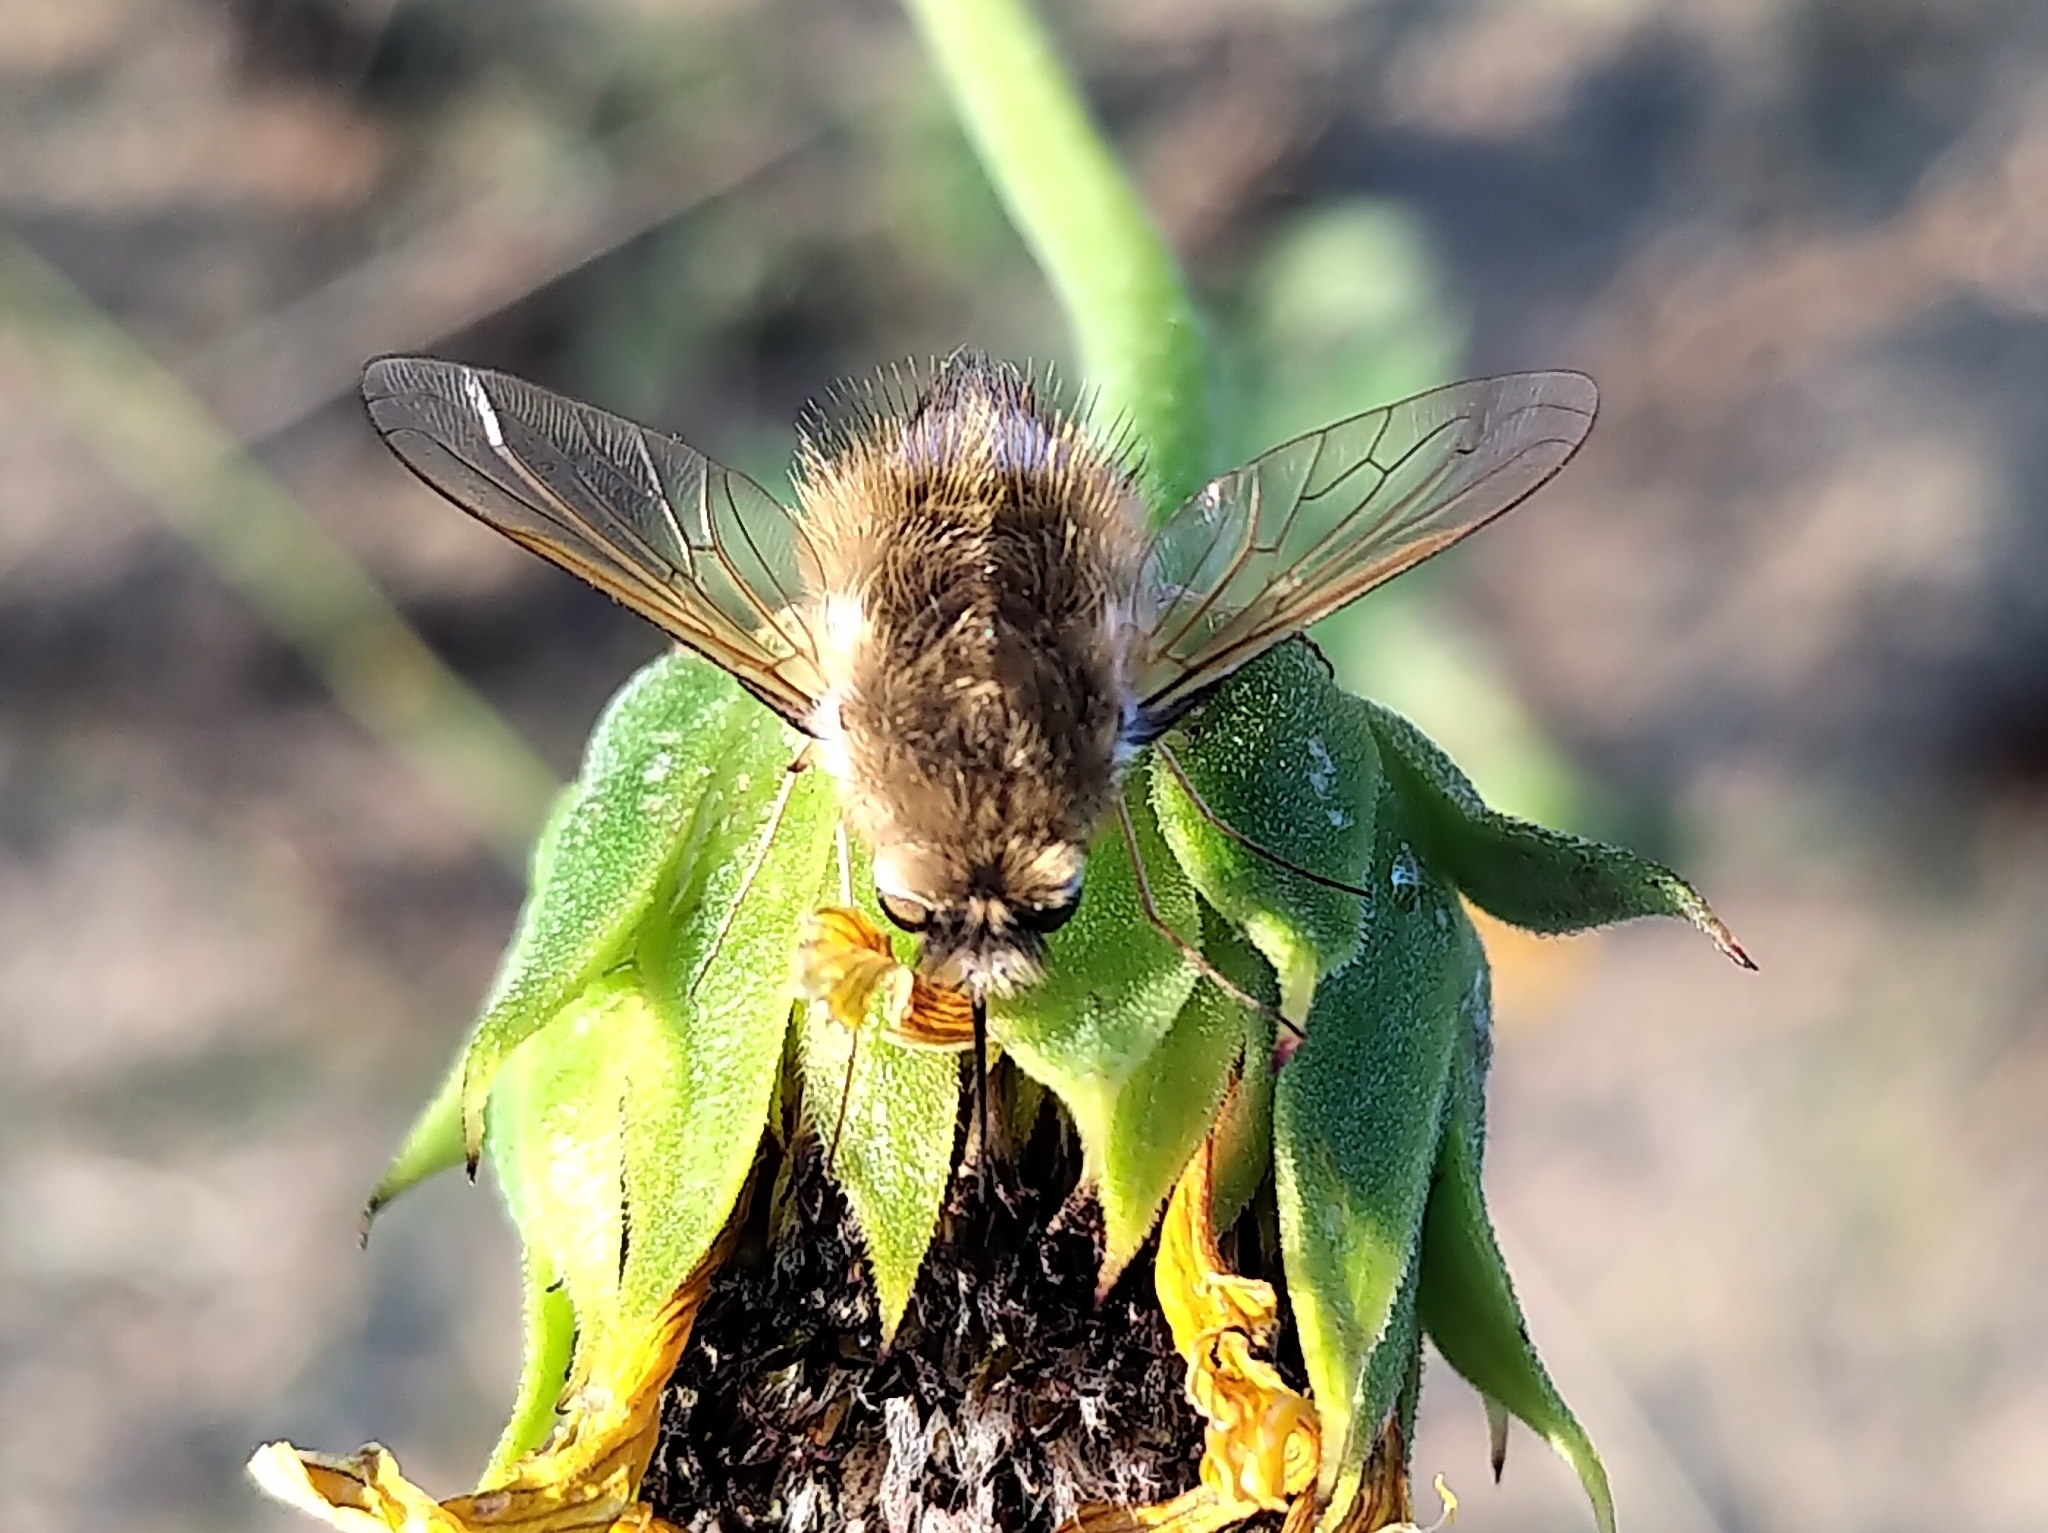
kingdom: Animalia
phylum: Arthropoda
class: Insecta
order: Diptera
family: Bombyliidae
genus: Anastoechus
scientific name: Anastoechus barbatus
